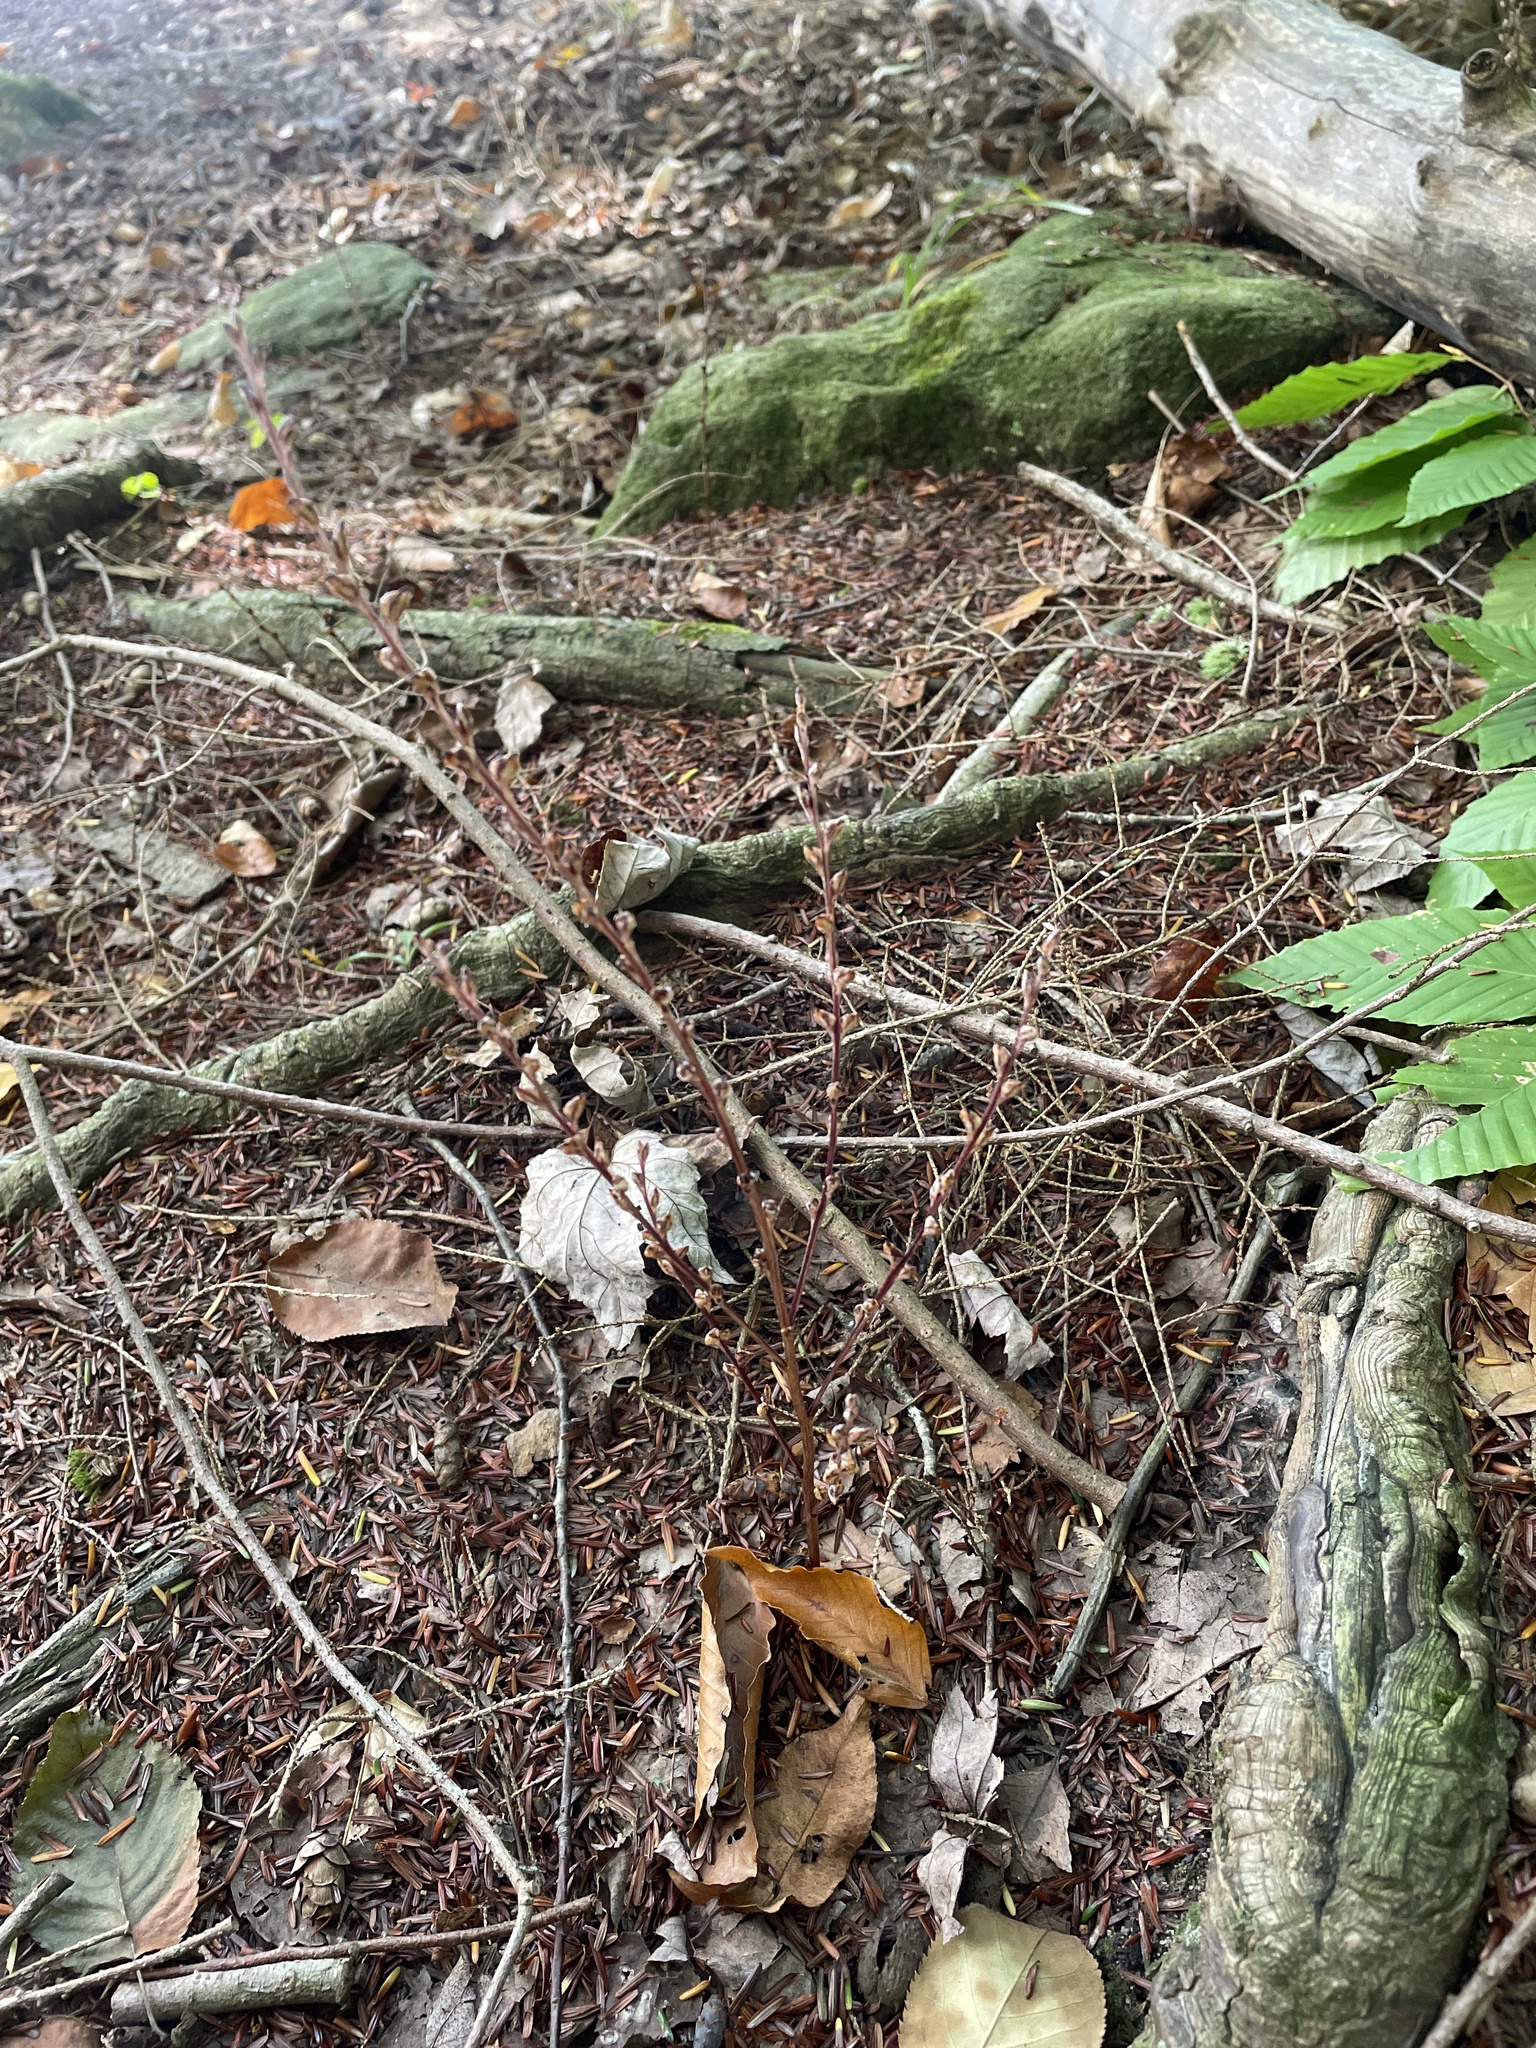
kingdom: Plantae
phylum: Tracheophyta
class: Magnoliopsida
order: Lamiales
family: Orobanchaceae
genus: Epifagus
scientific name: Epifagus virginiana
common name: Beechdrops
